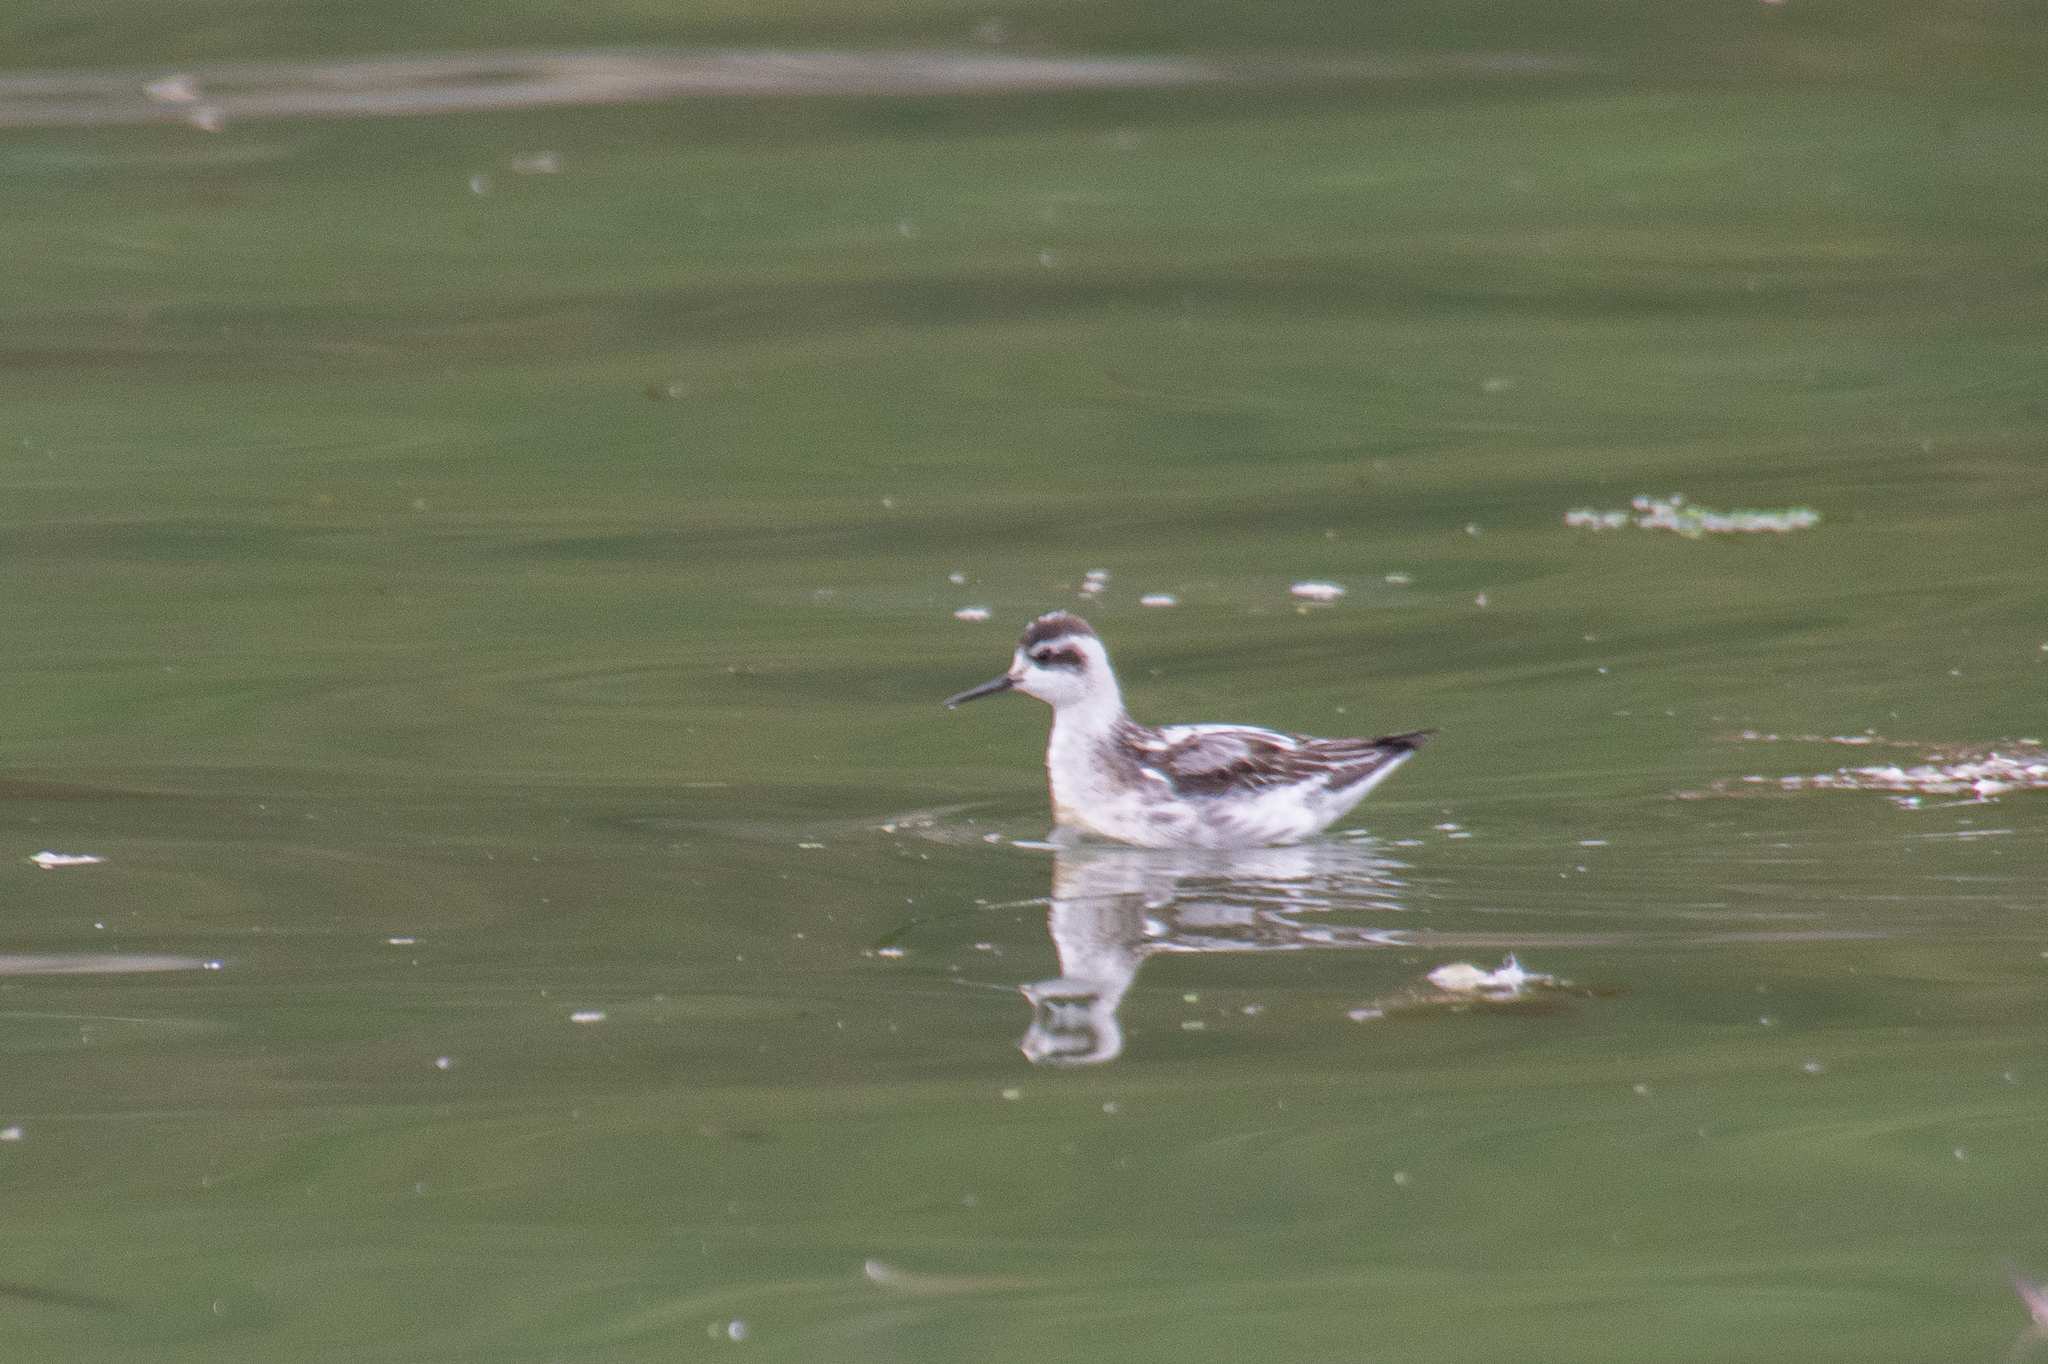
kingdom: Animalia
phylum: Chordata
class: Aves
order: Charadriiformes
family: Scolopacidae
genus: Phalaropus
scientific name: Phalaropus lobatus
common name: Red-necked phalarope
